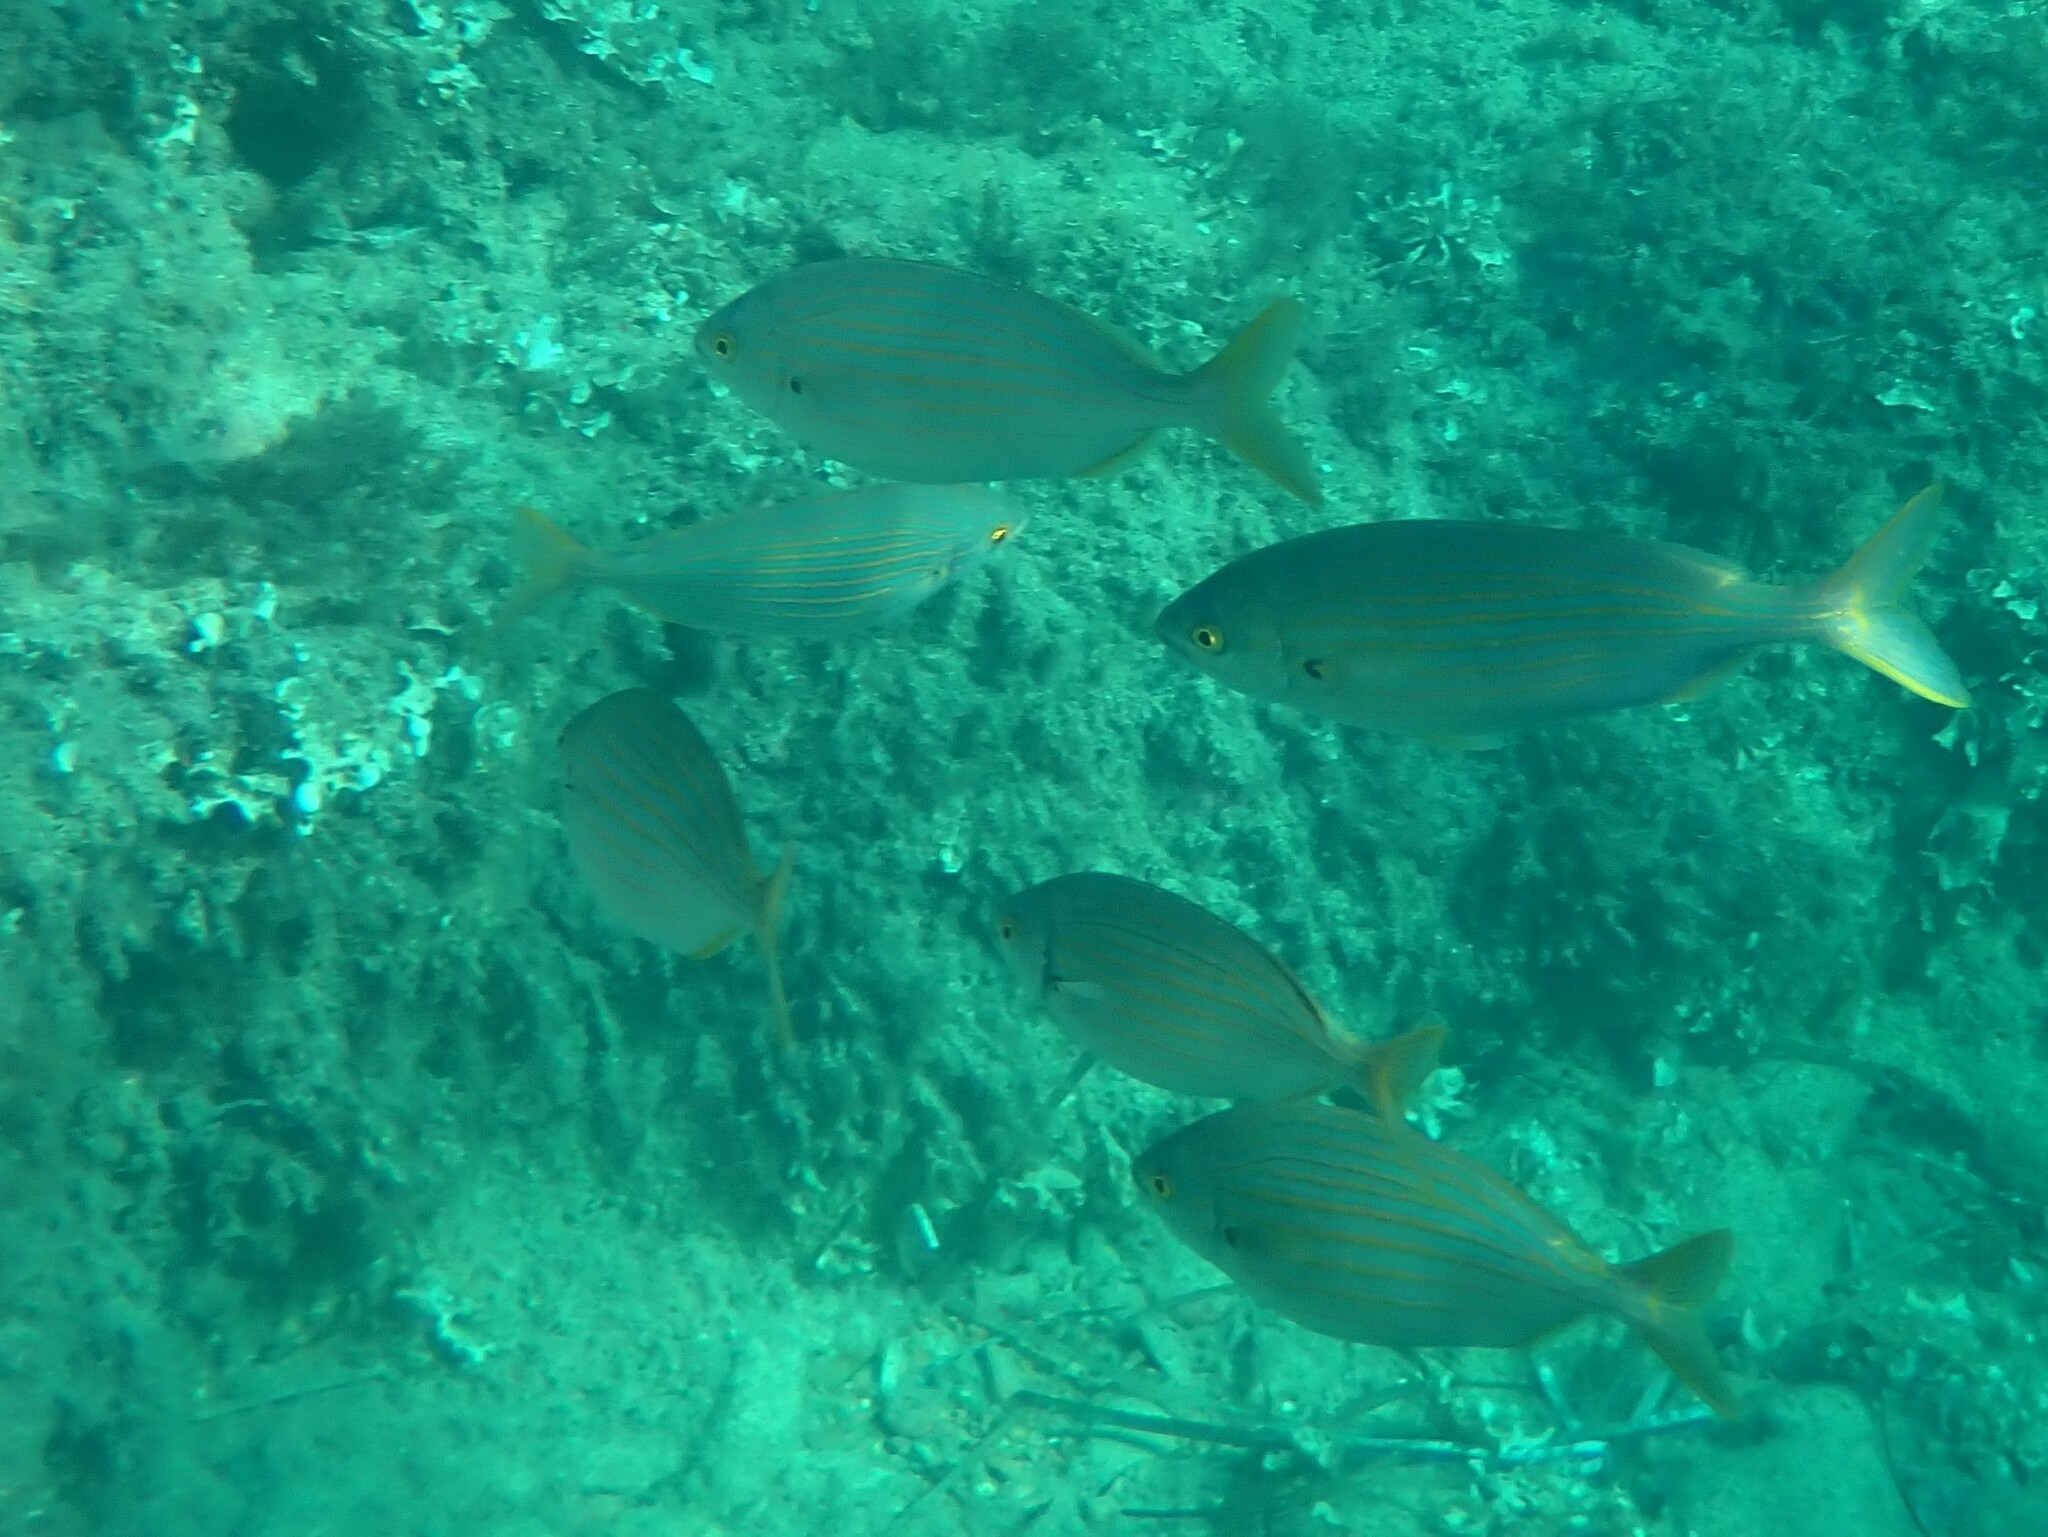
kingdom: Animalia
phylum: Chordata
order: Perciformes
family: Sparidae
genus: Sarpa
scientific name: Sarpa salpa
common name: Salema
